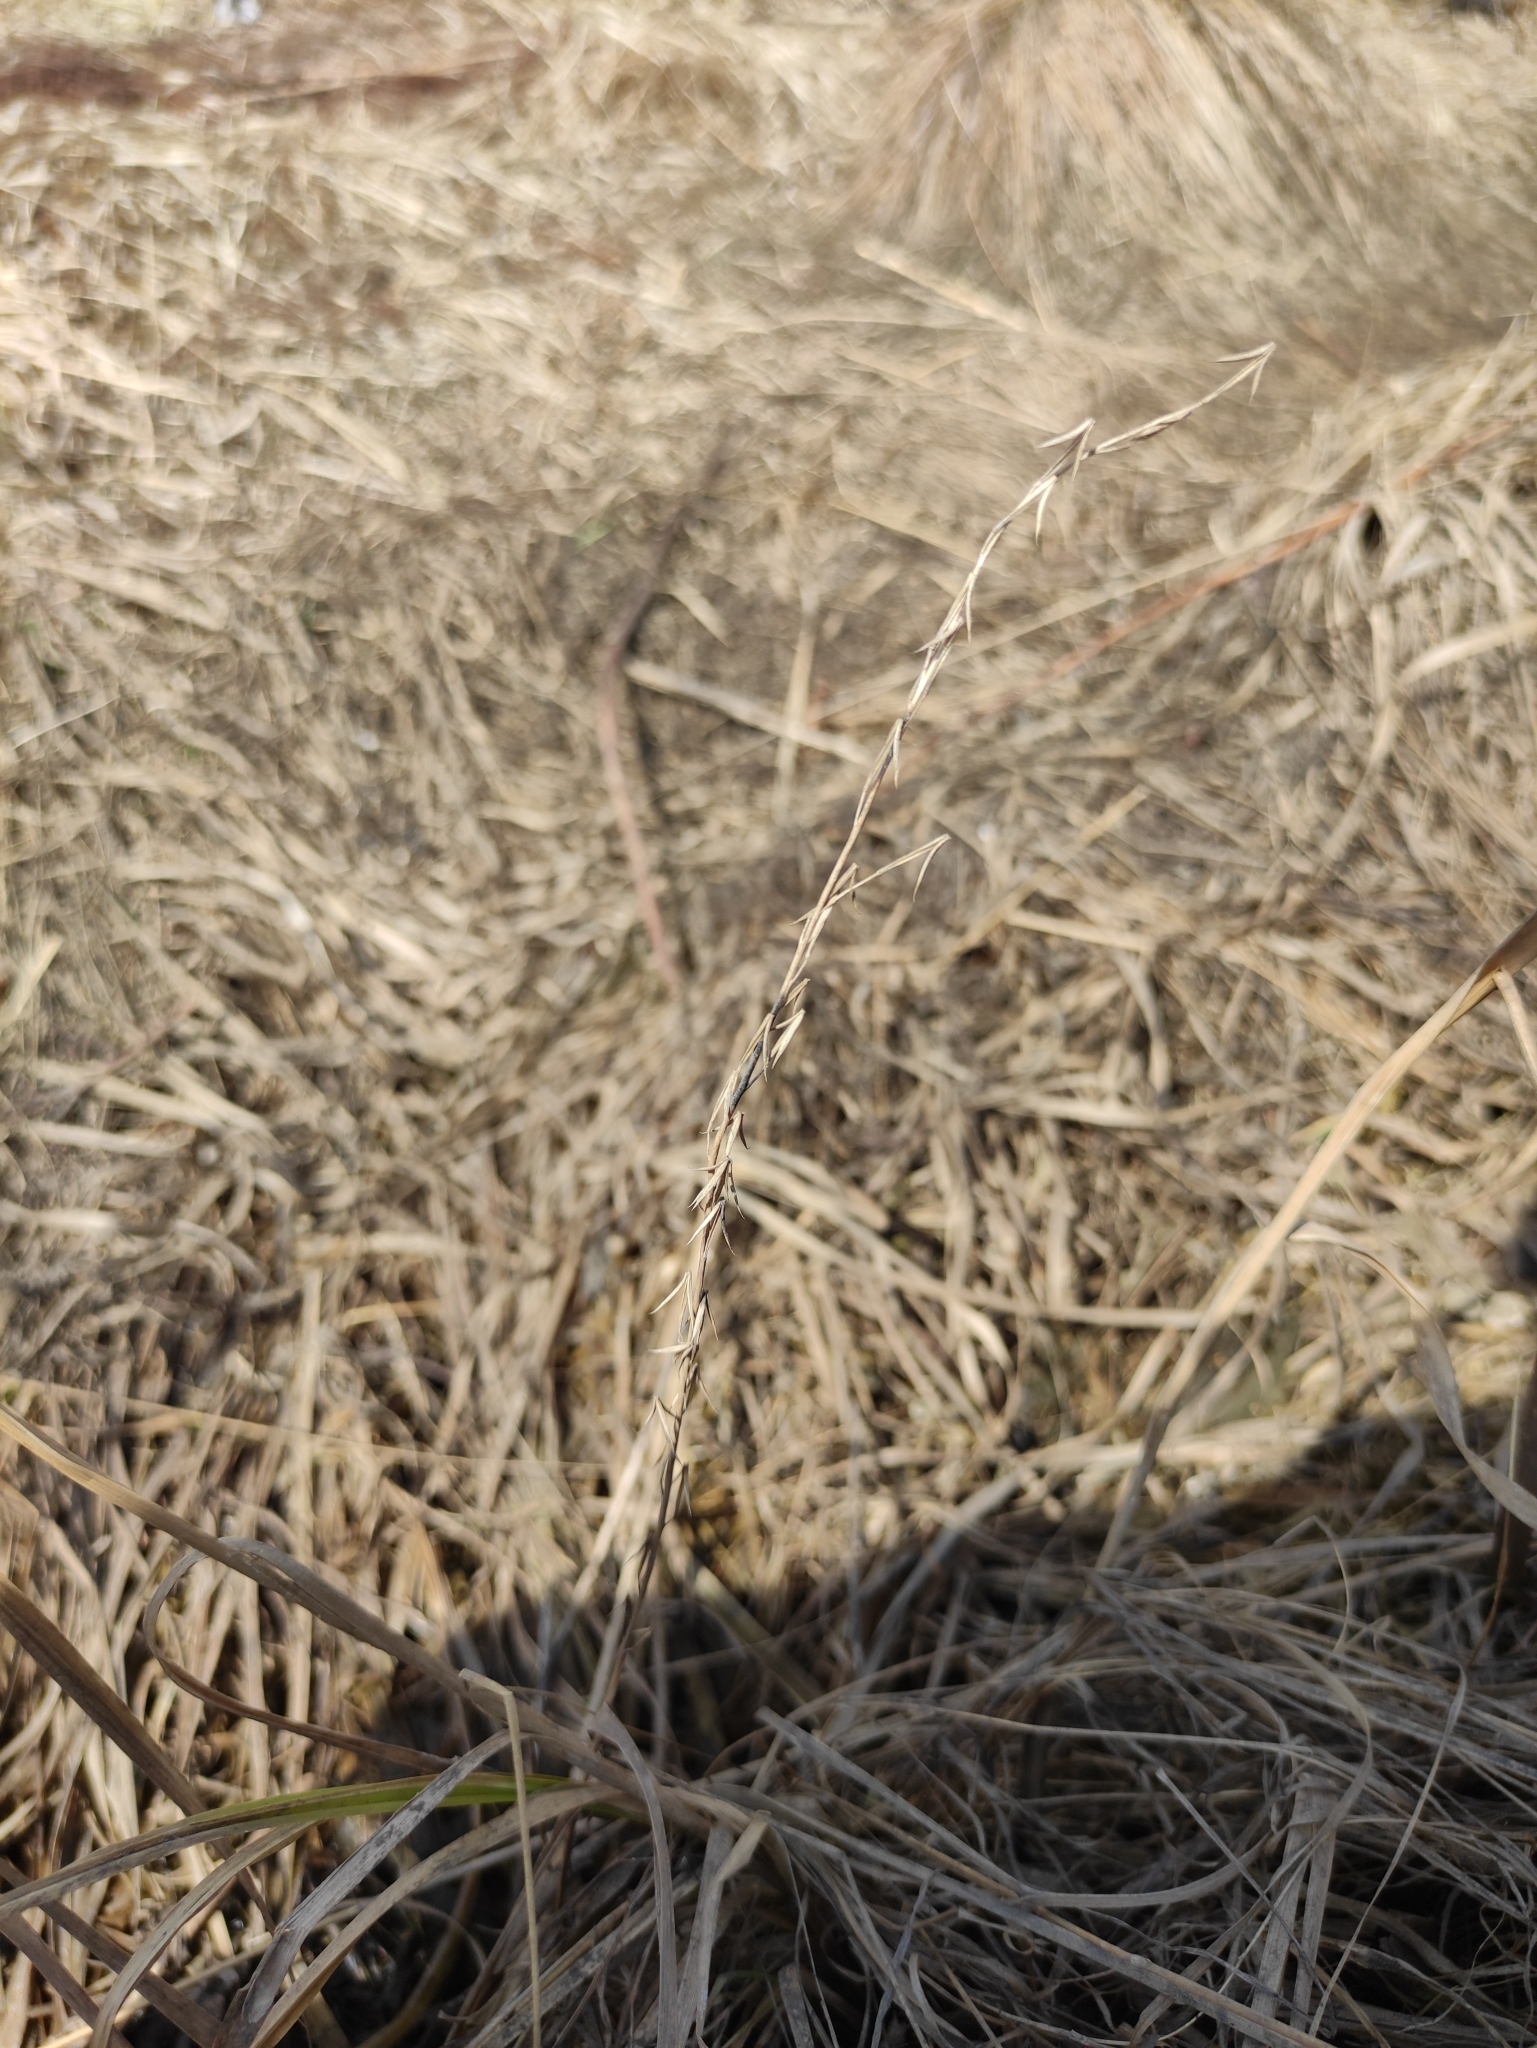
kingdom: Plantae
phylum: Tracheophyta
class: Liliopsida
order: Alismatales
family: Juncaginaceae
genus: Triglochin
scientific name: Triglochin palustris
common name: Marsh arrowgrass
